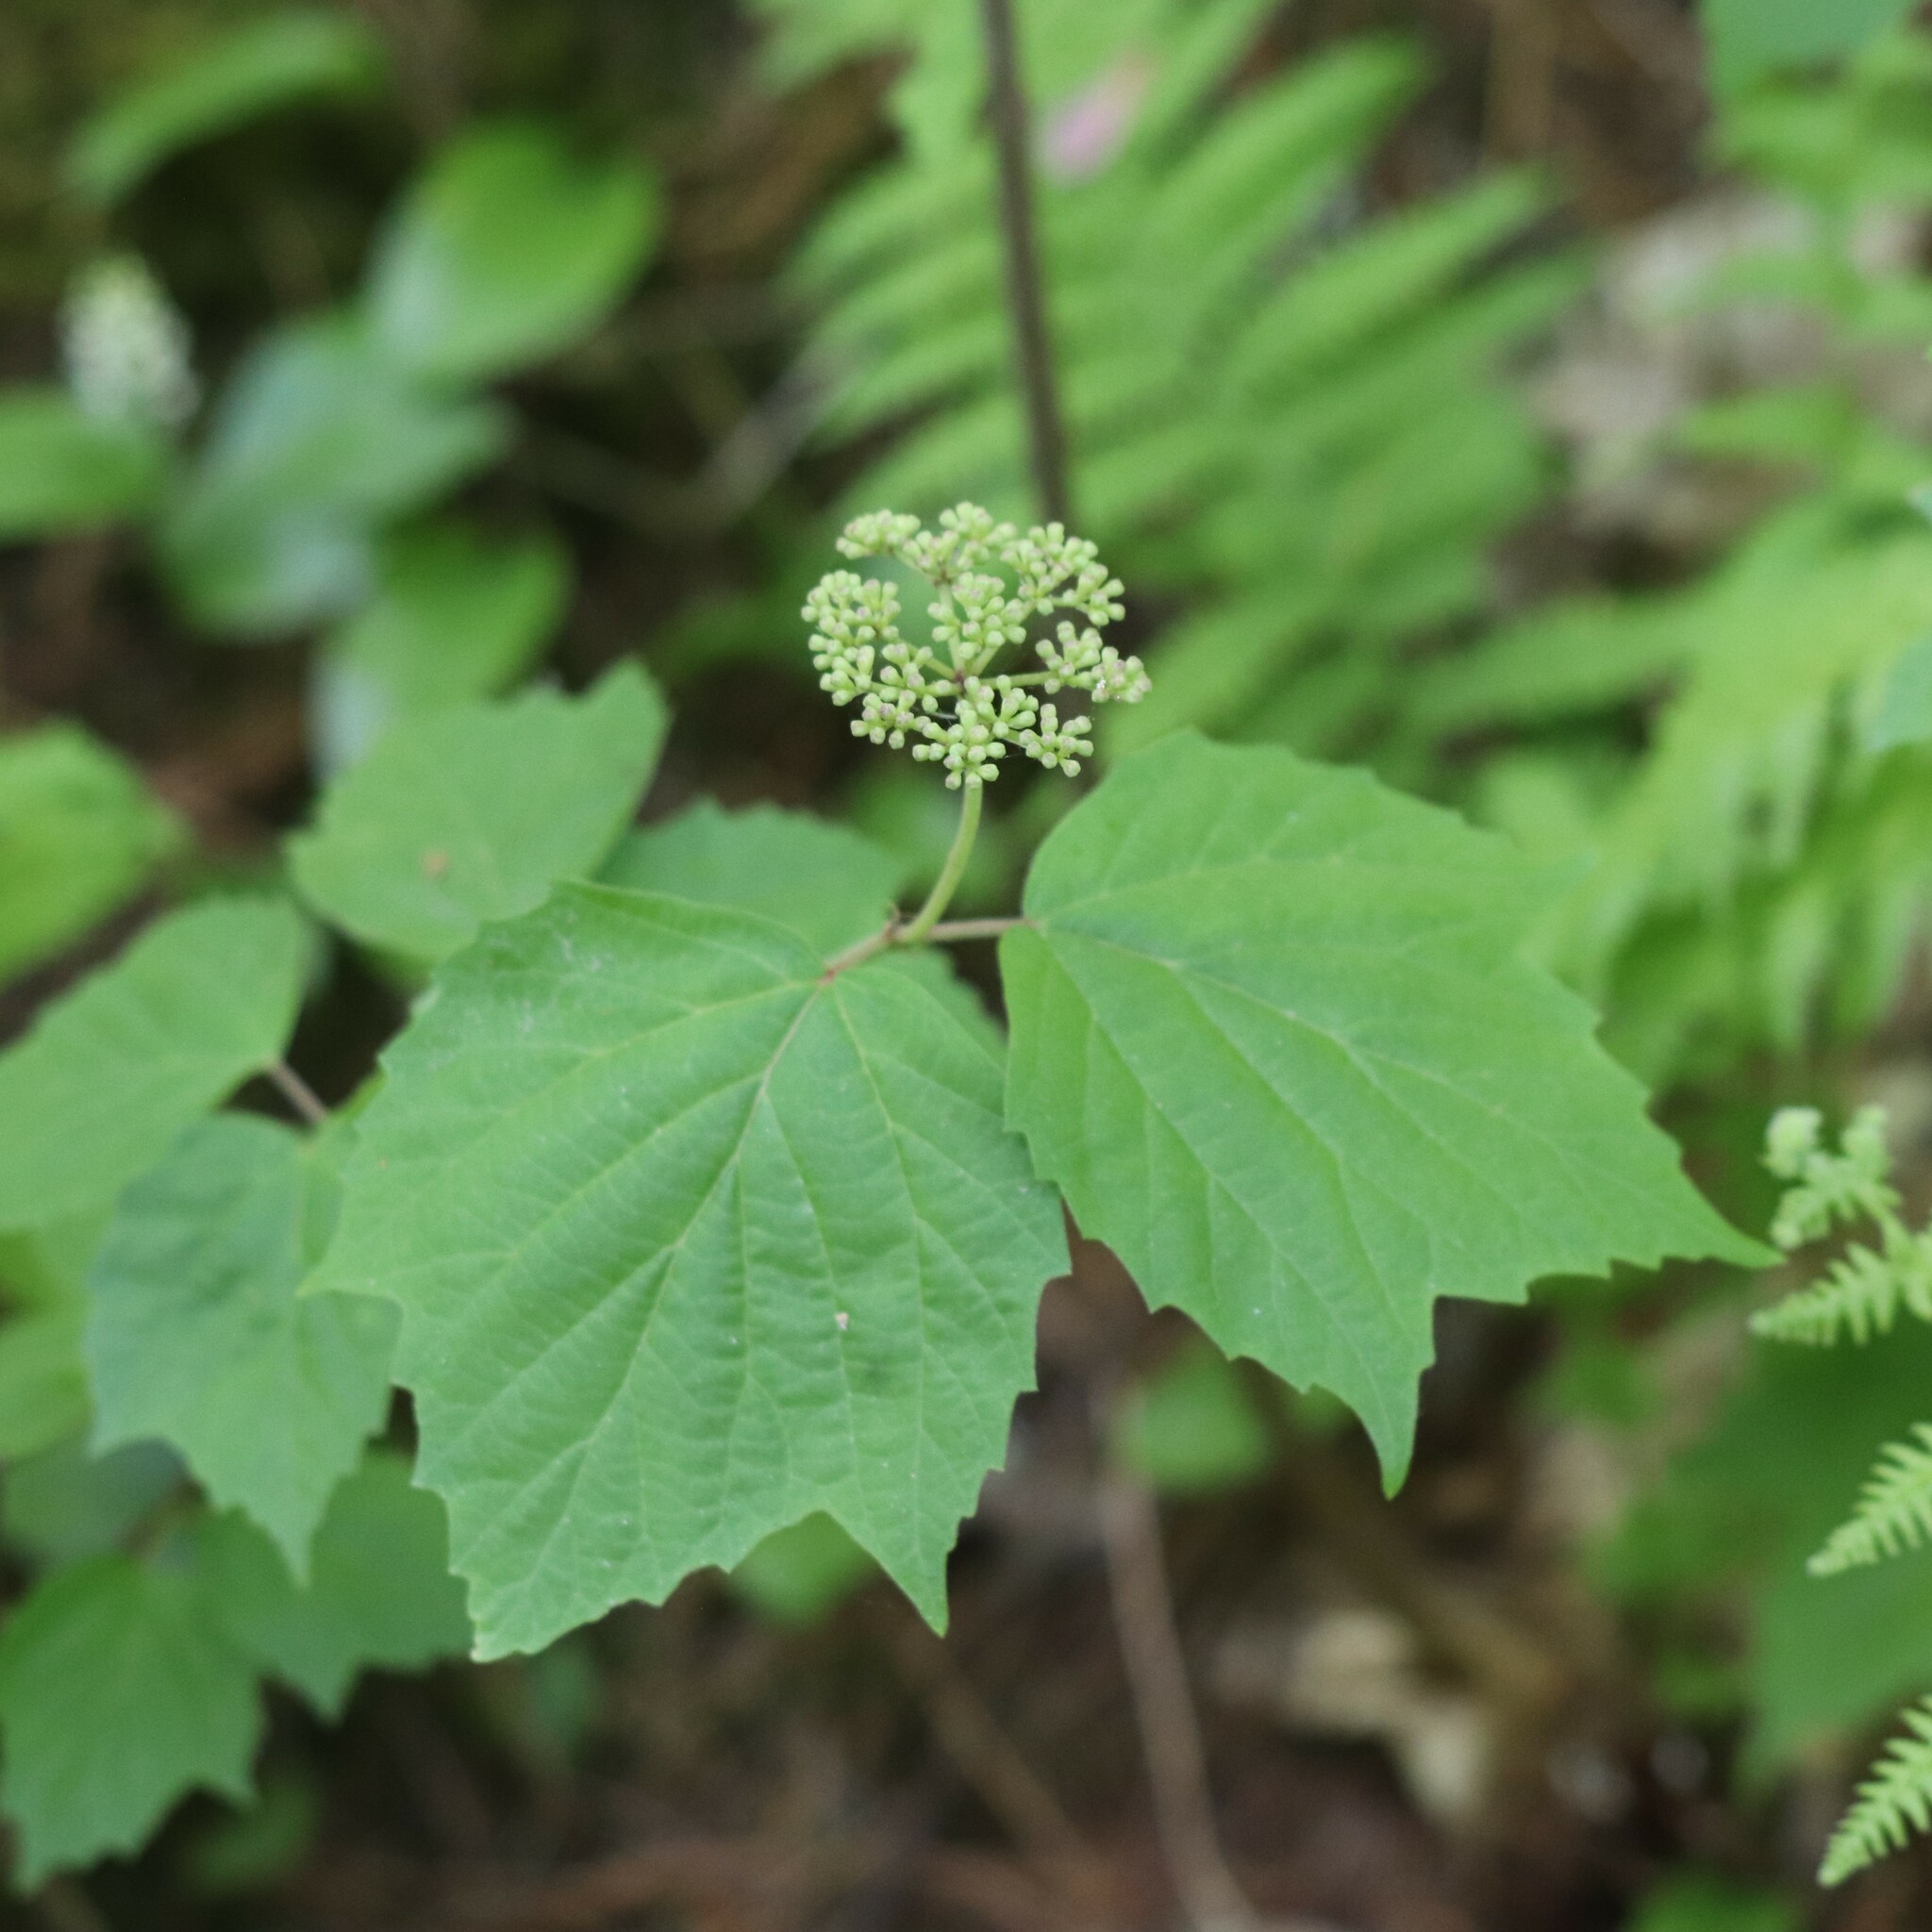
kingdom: Plantae
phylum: Tracheophyta
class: Magnoliopsida
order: Dipsacales
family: Viburnaceae
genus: Viburnum
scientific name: Viburnum acerifolium
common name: Dockmackie
